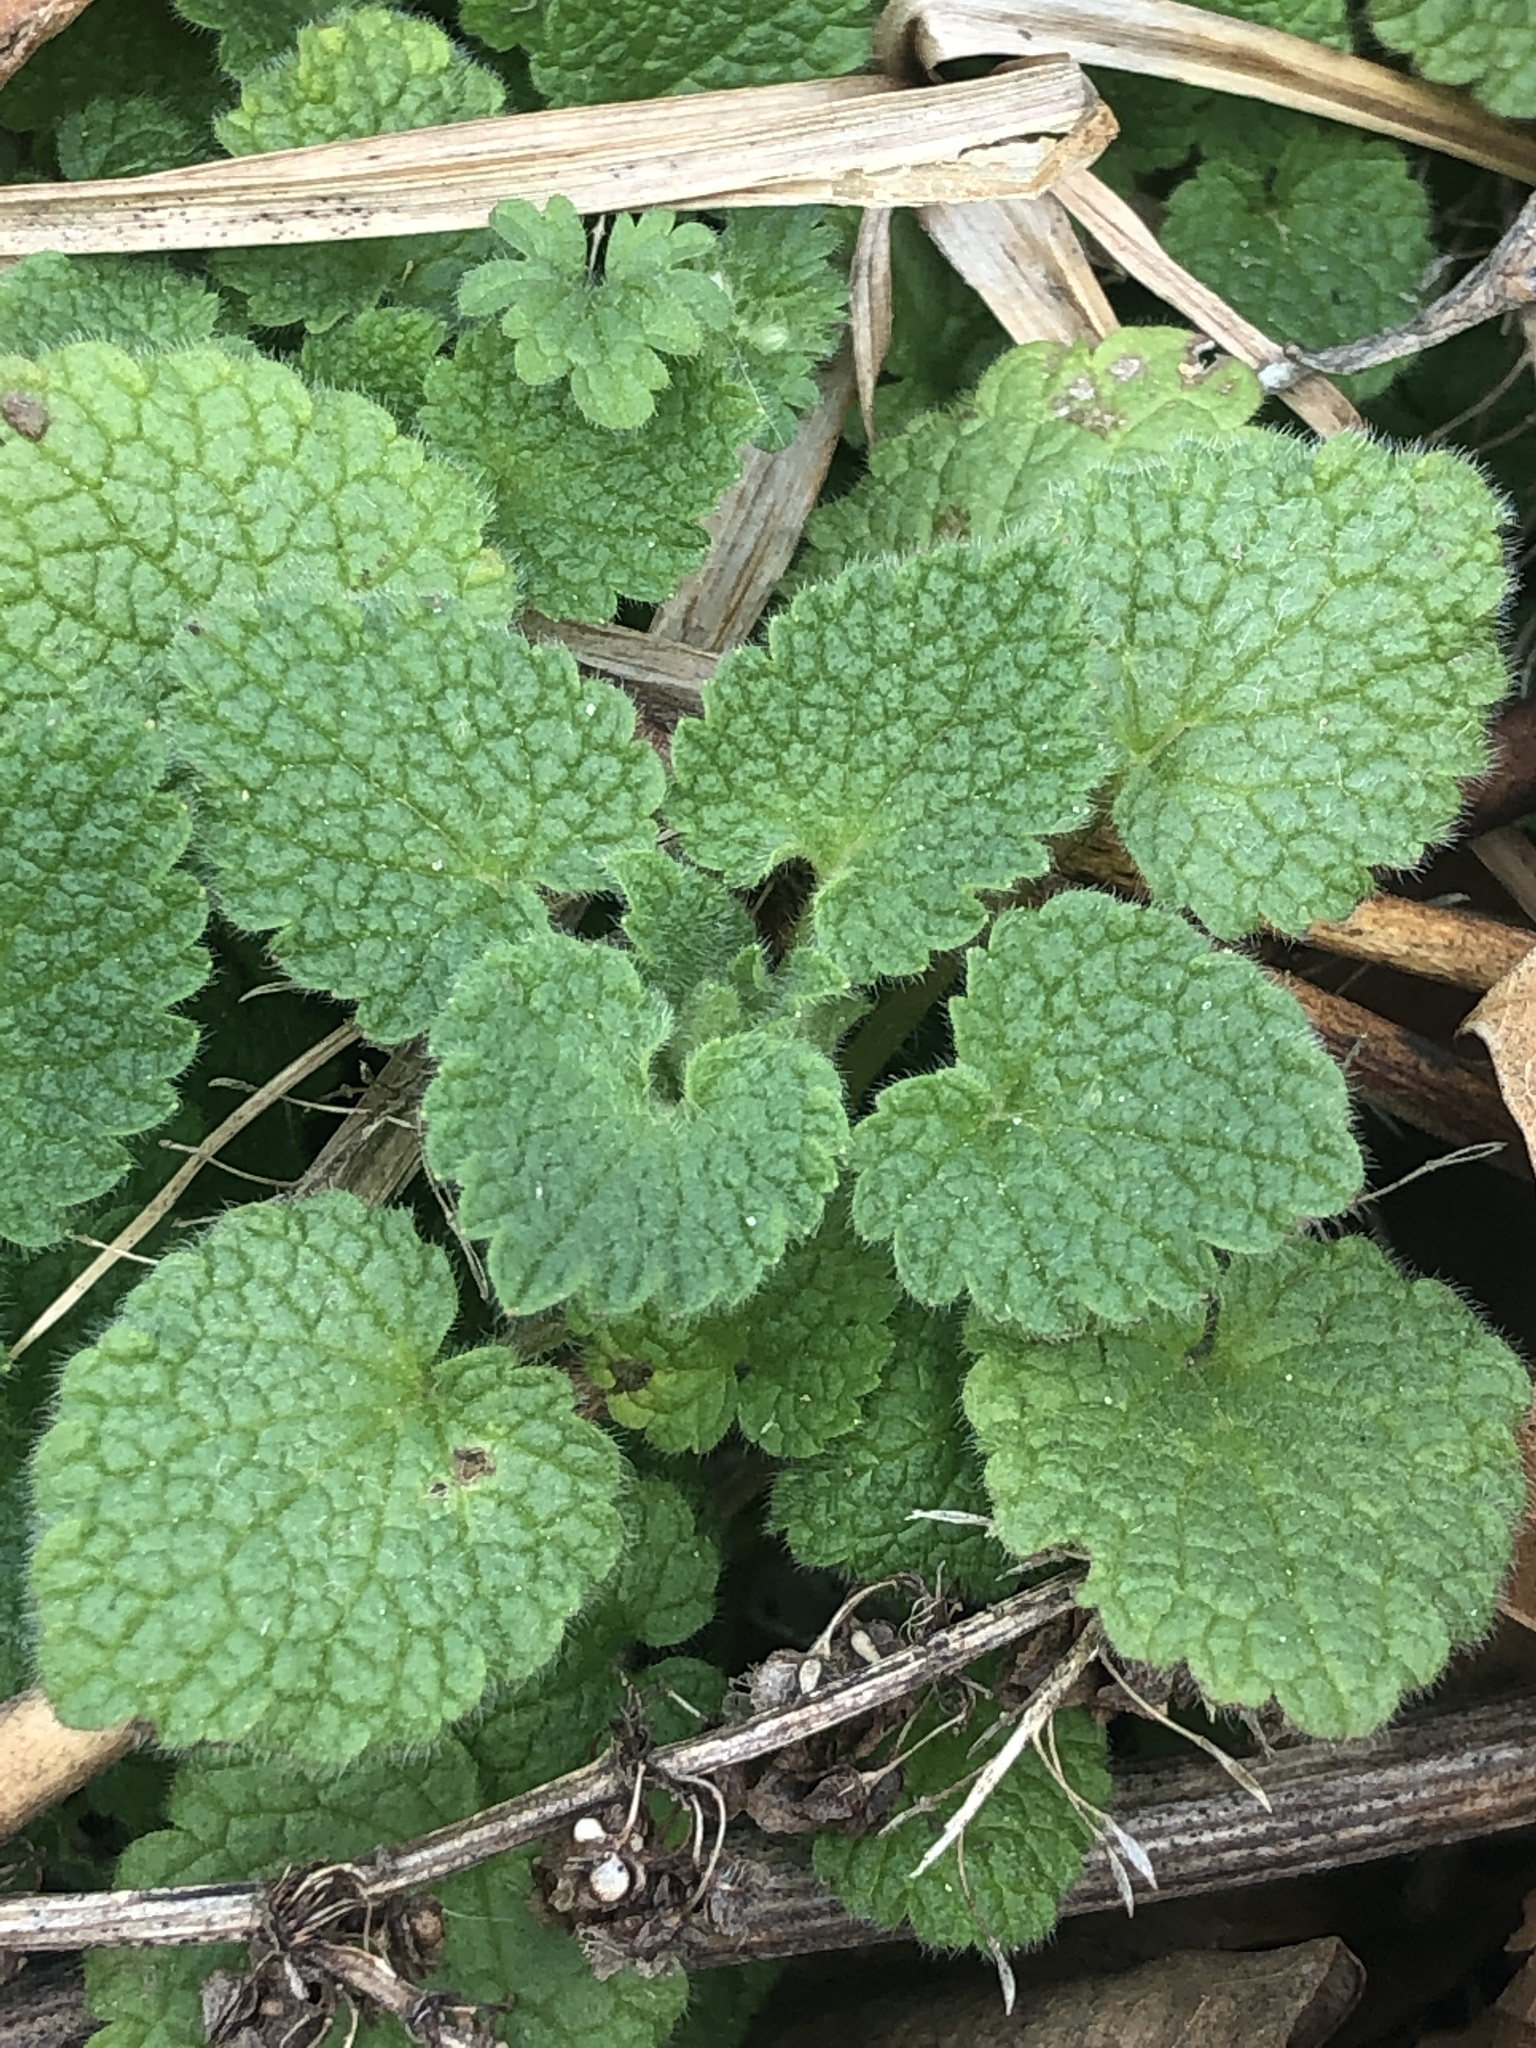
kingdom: Plantae
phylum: Tracheophyta
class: Magnoliopsida
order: Lamiales
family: Lamiaceae
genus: Lamium
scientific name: Lamium purpureum
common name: Red dead-nettle
